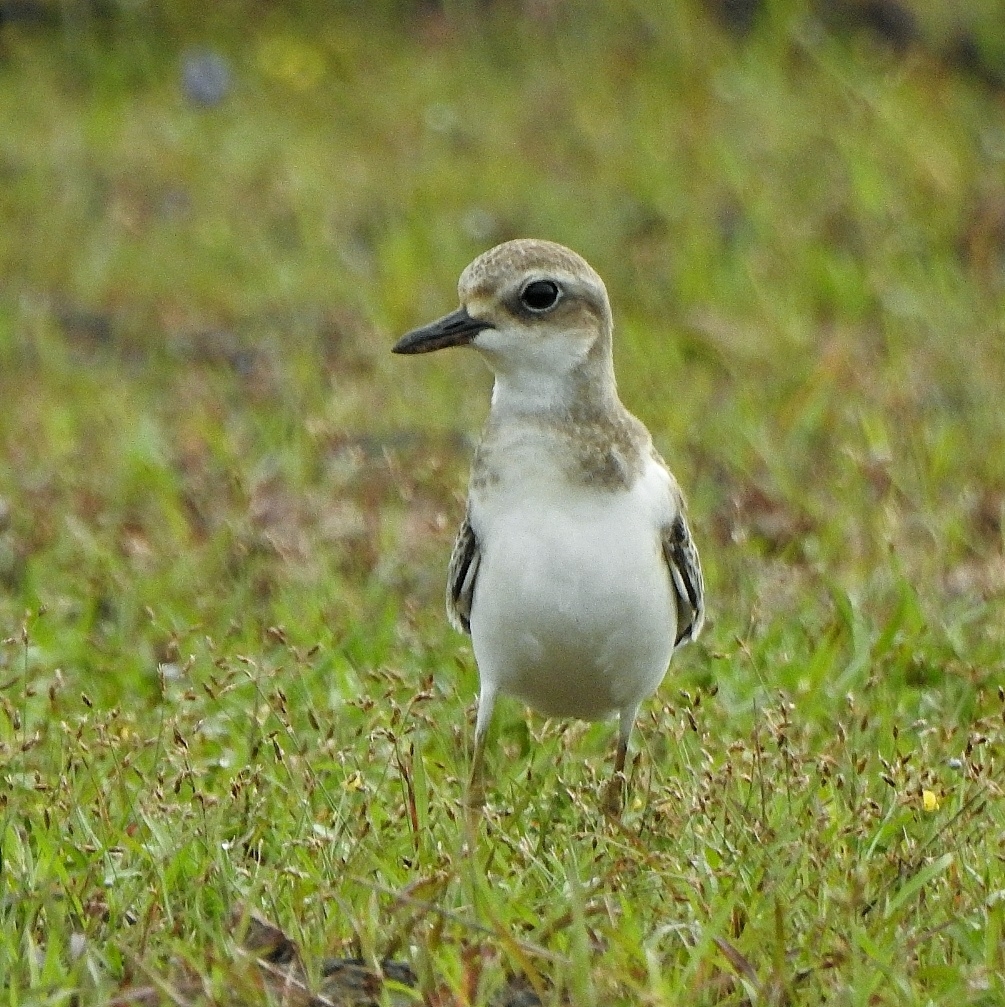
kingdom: Animalia
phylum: Chordata
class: Aves
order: Charadriiformes
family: Charadriidae
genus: Charadrius
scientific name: Charadrius leschenaultii
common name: Greater sand plover
